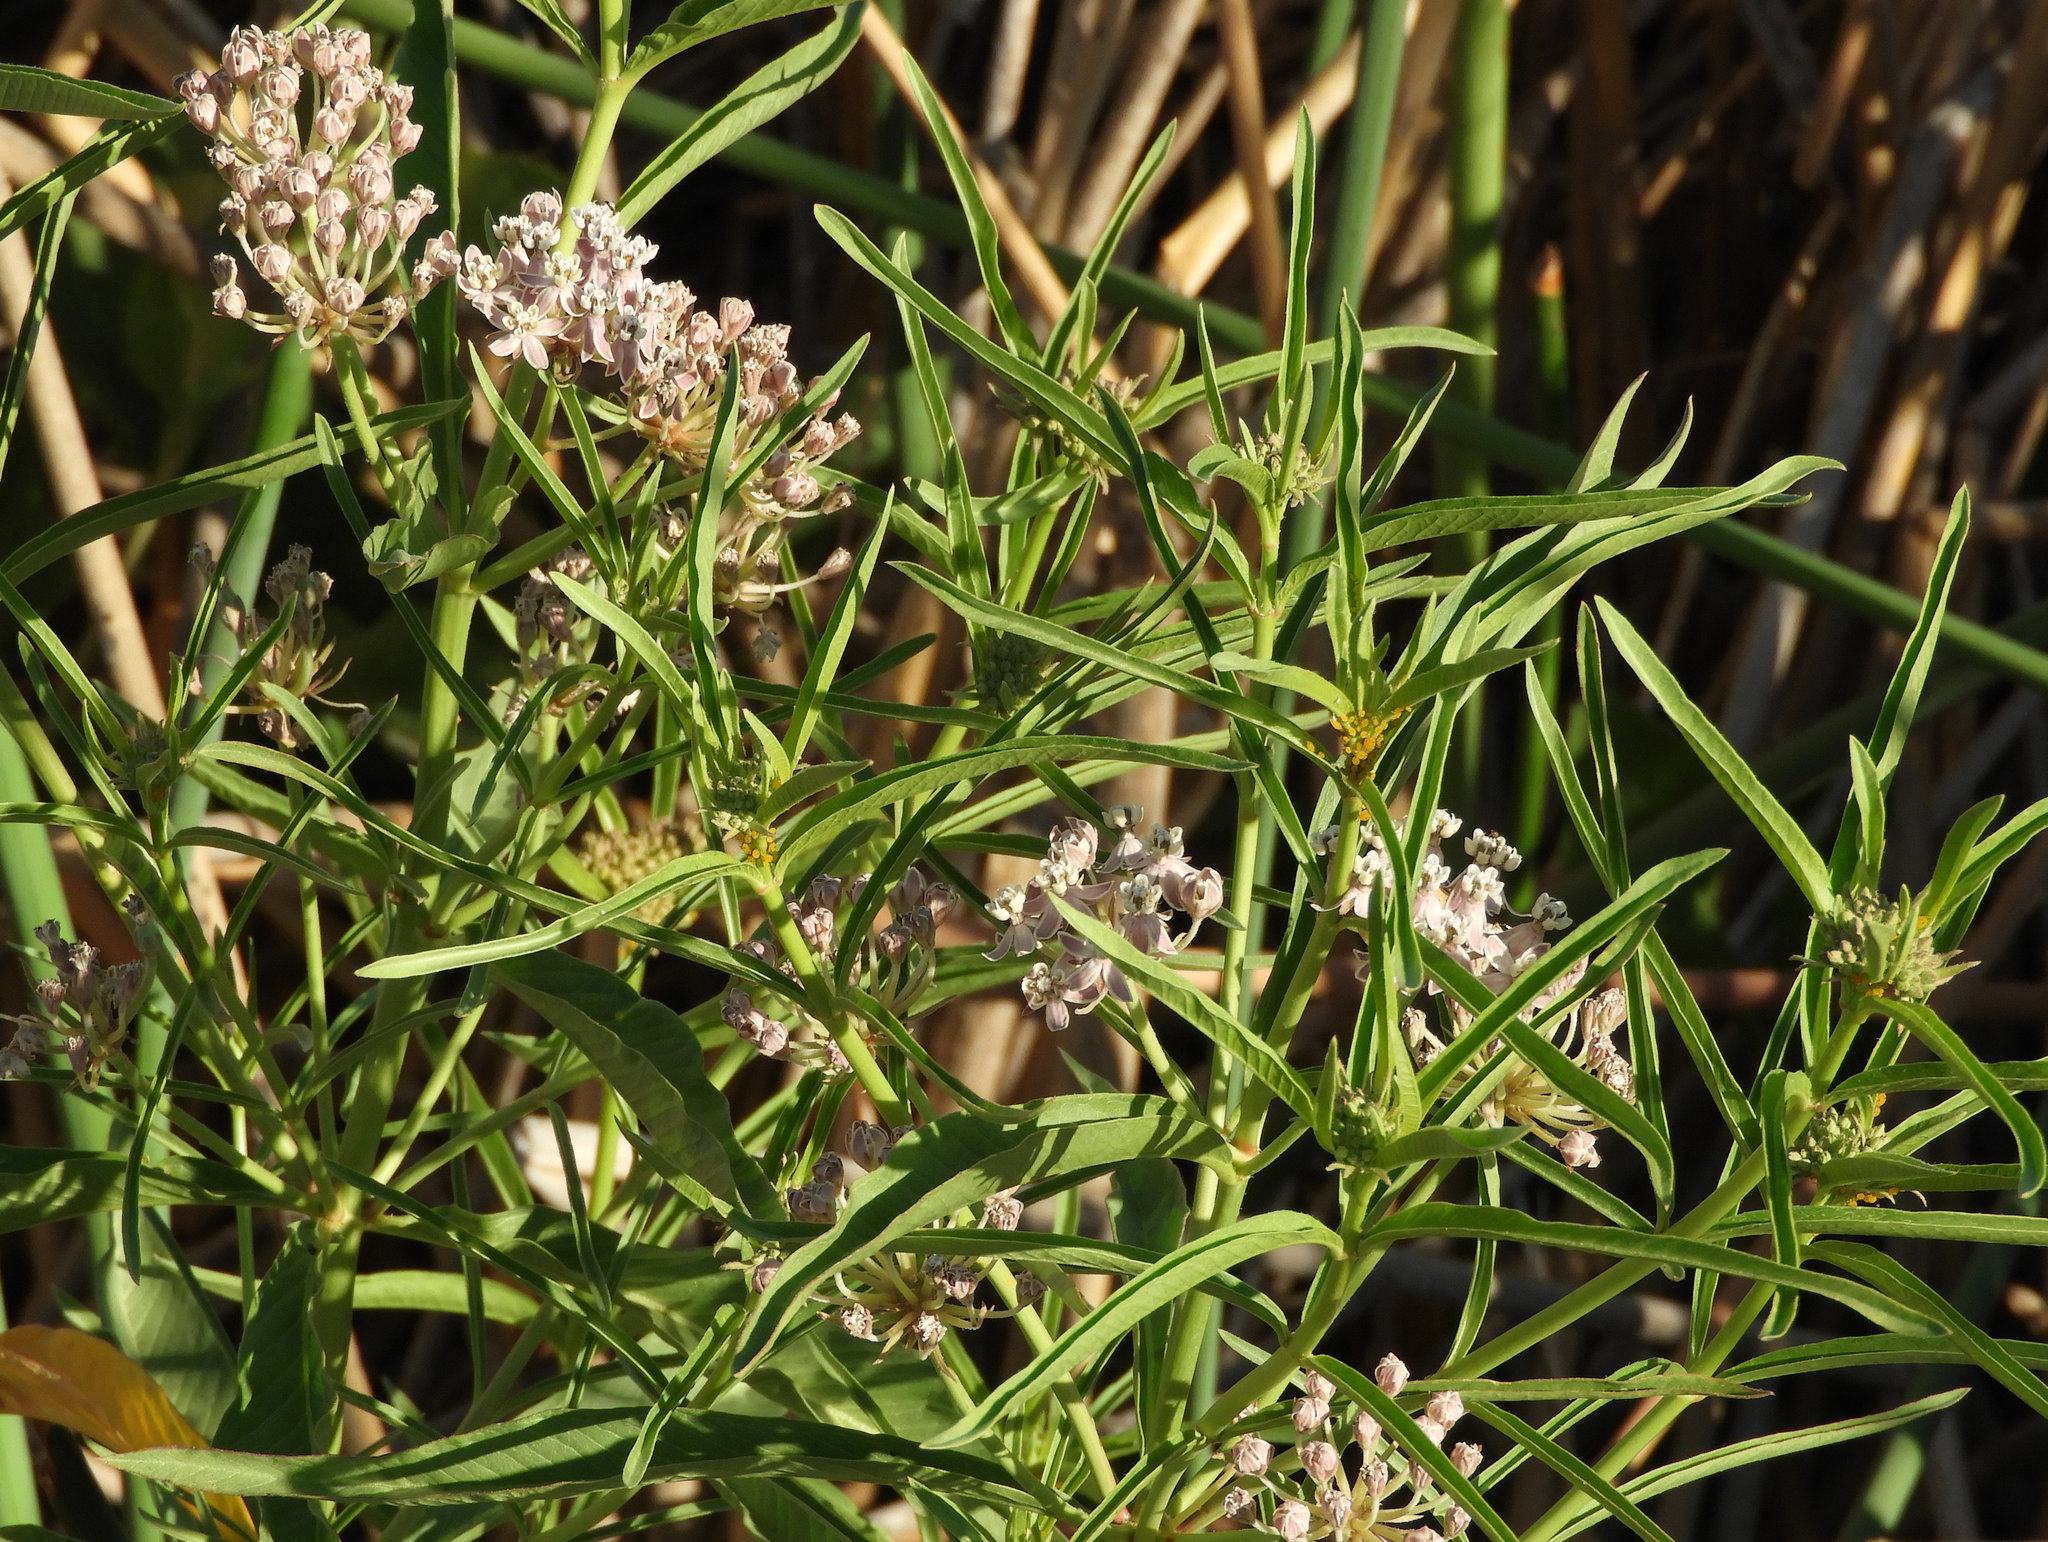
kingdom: Plantae
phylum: Tracheophyta
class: Magnoliopsida
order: Gentianales
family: Apocynaceae
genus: Asclepias
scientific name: Asclepias fascicularis
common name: Mexican milkweed
